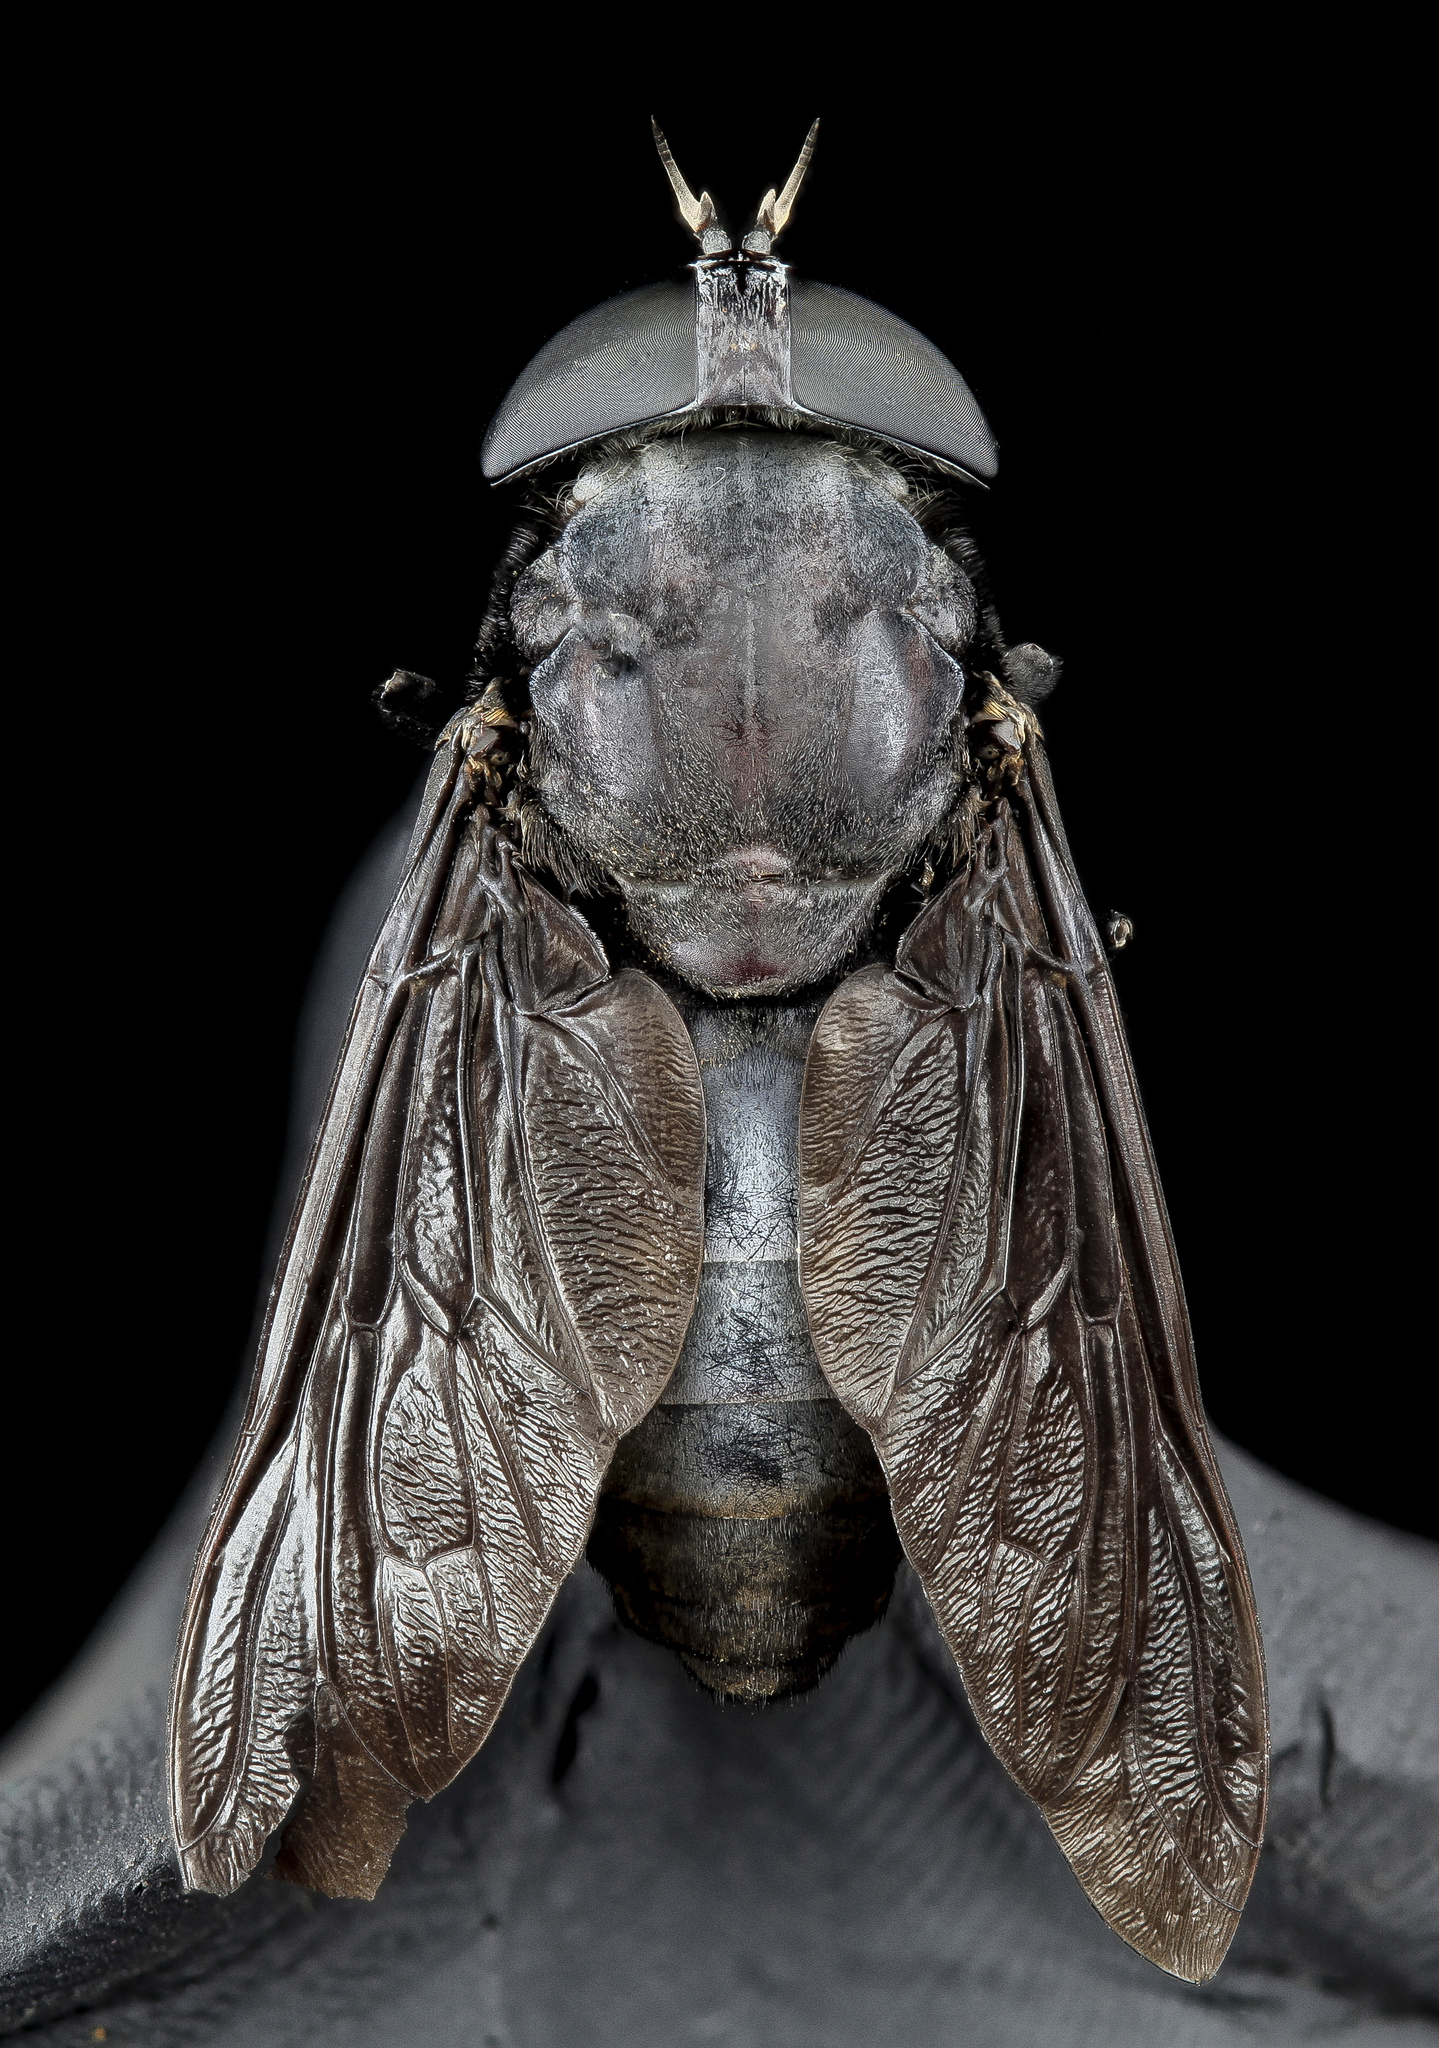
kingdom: Animalia
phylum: Arthropoda
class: Insecta
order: Diptera
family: Tabanidae
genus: Tabanus
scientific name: Tabanus atratus
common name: Black horse fly
